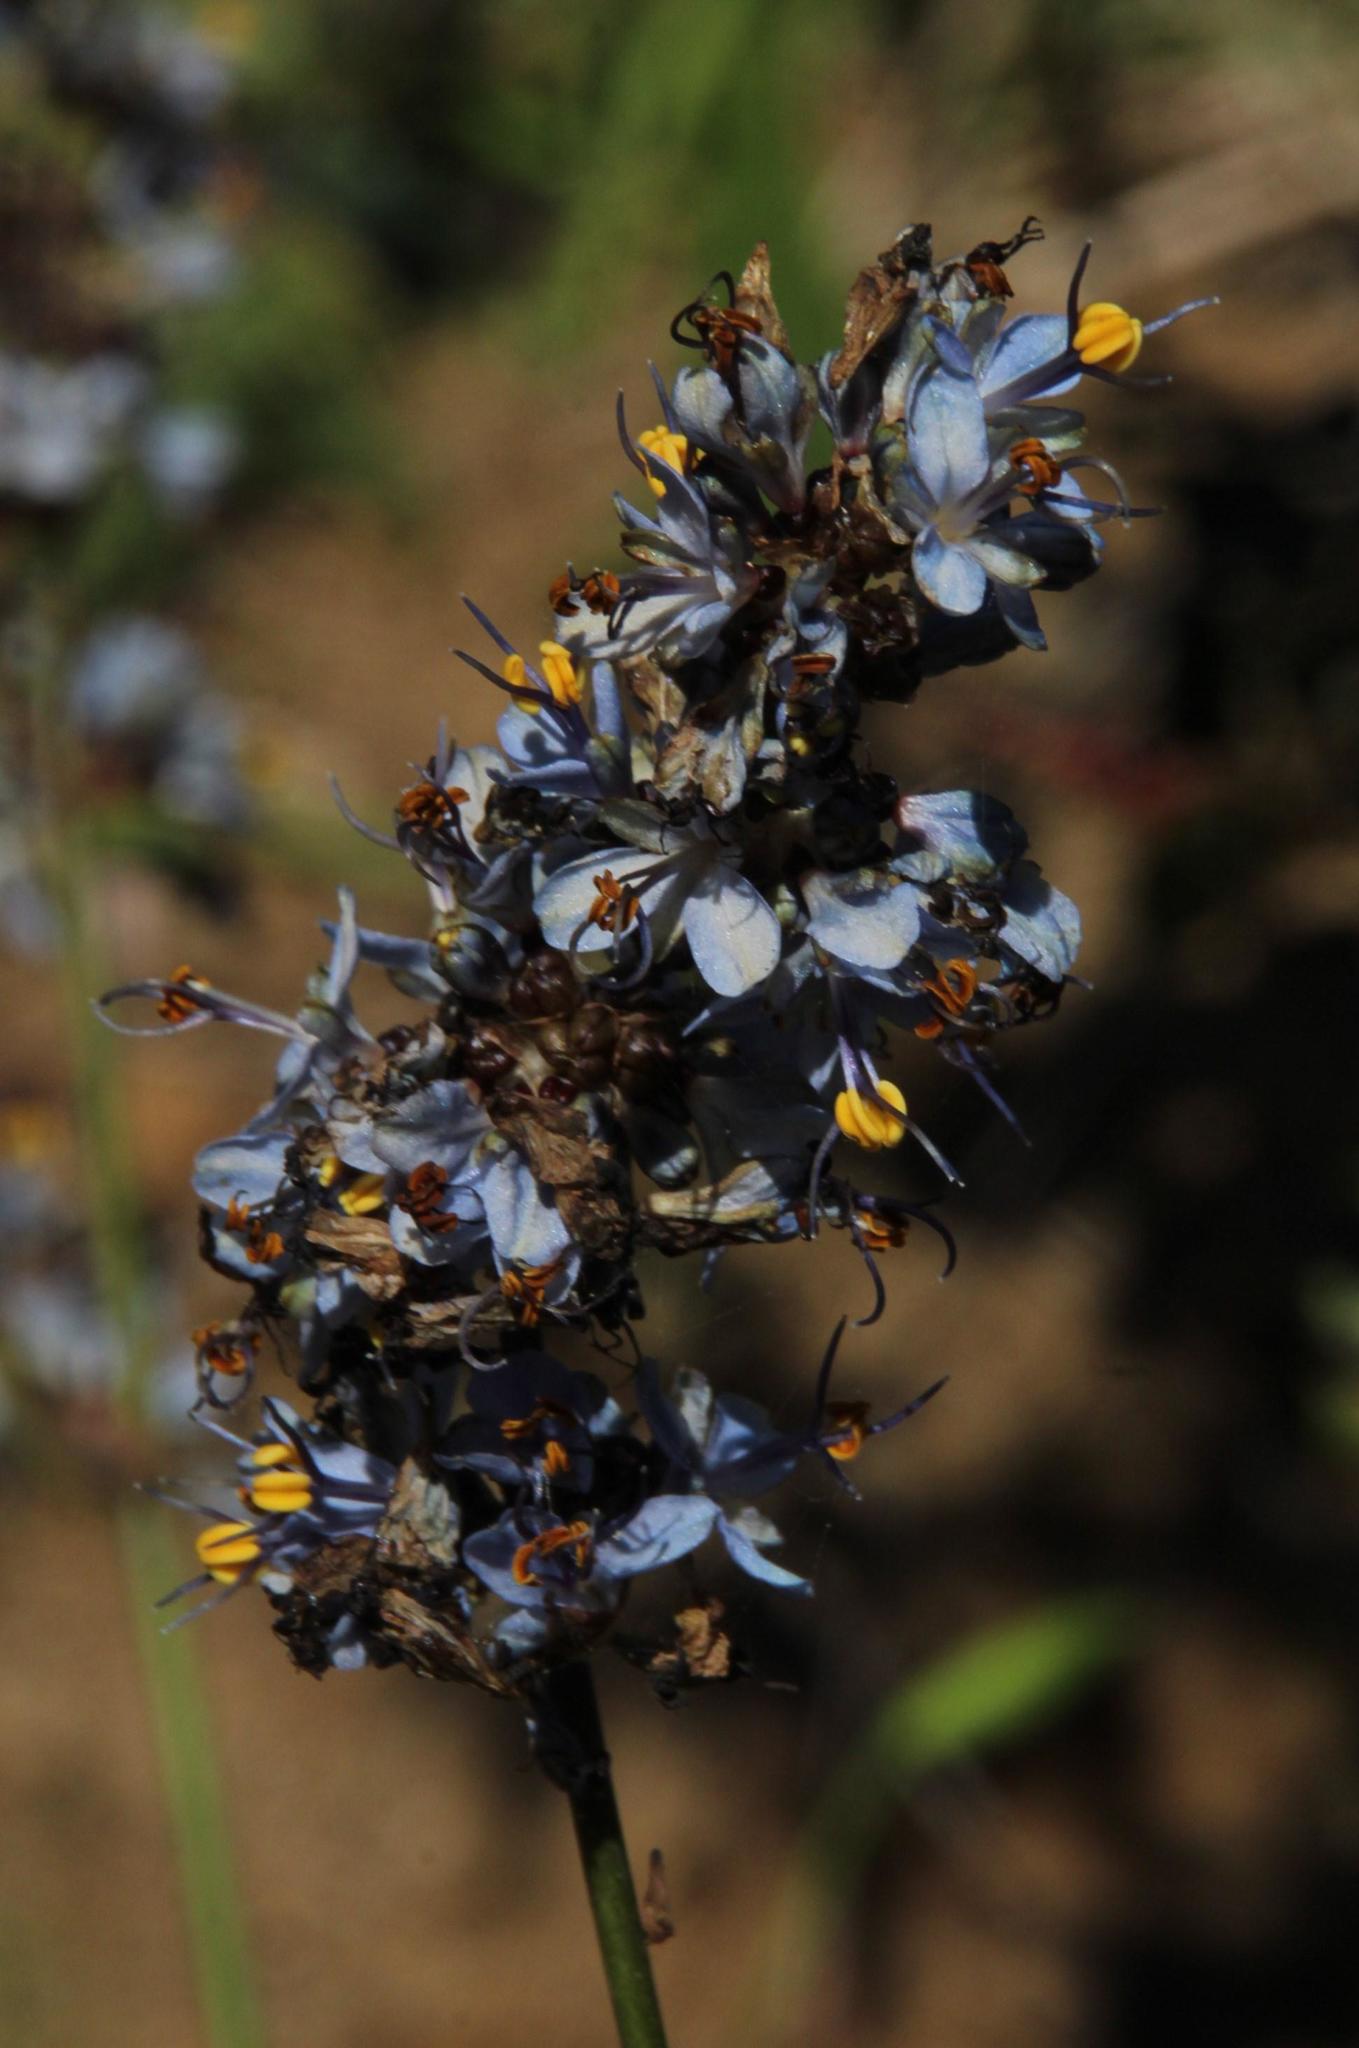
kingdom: Plantae
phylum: Tracheophyta
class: Liliopsida
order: Asparagales
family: Iridaceae
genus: Libertia
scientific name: Libertia sessiliflora
